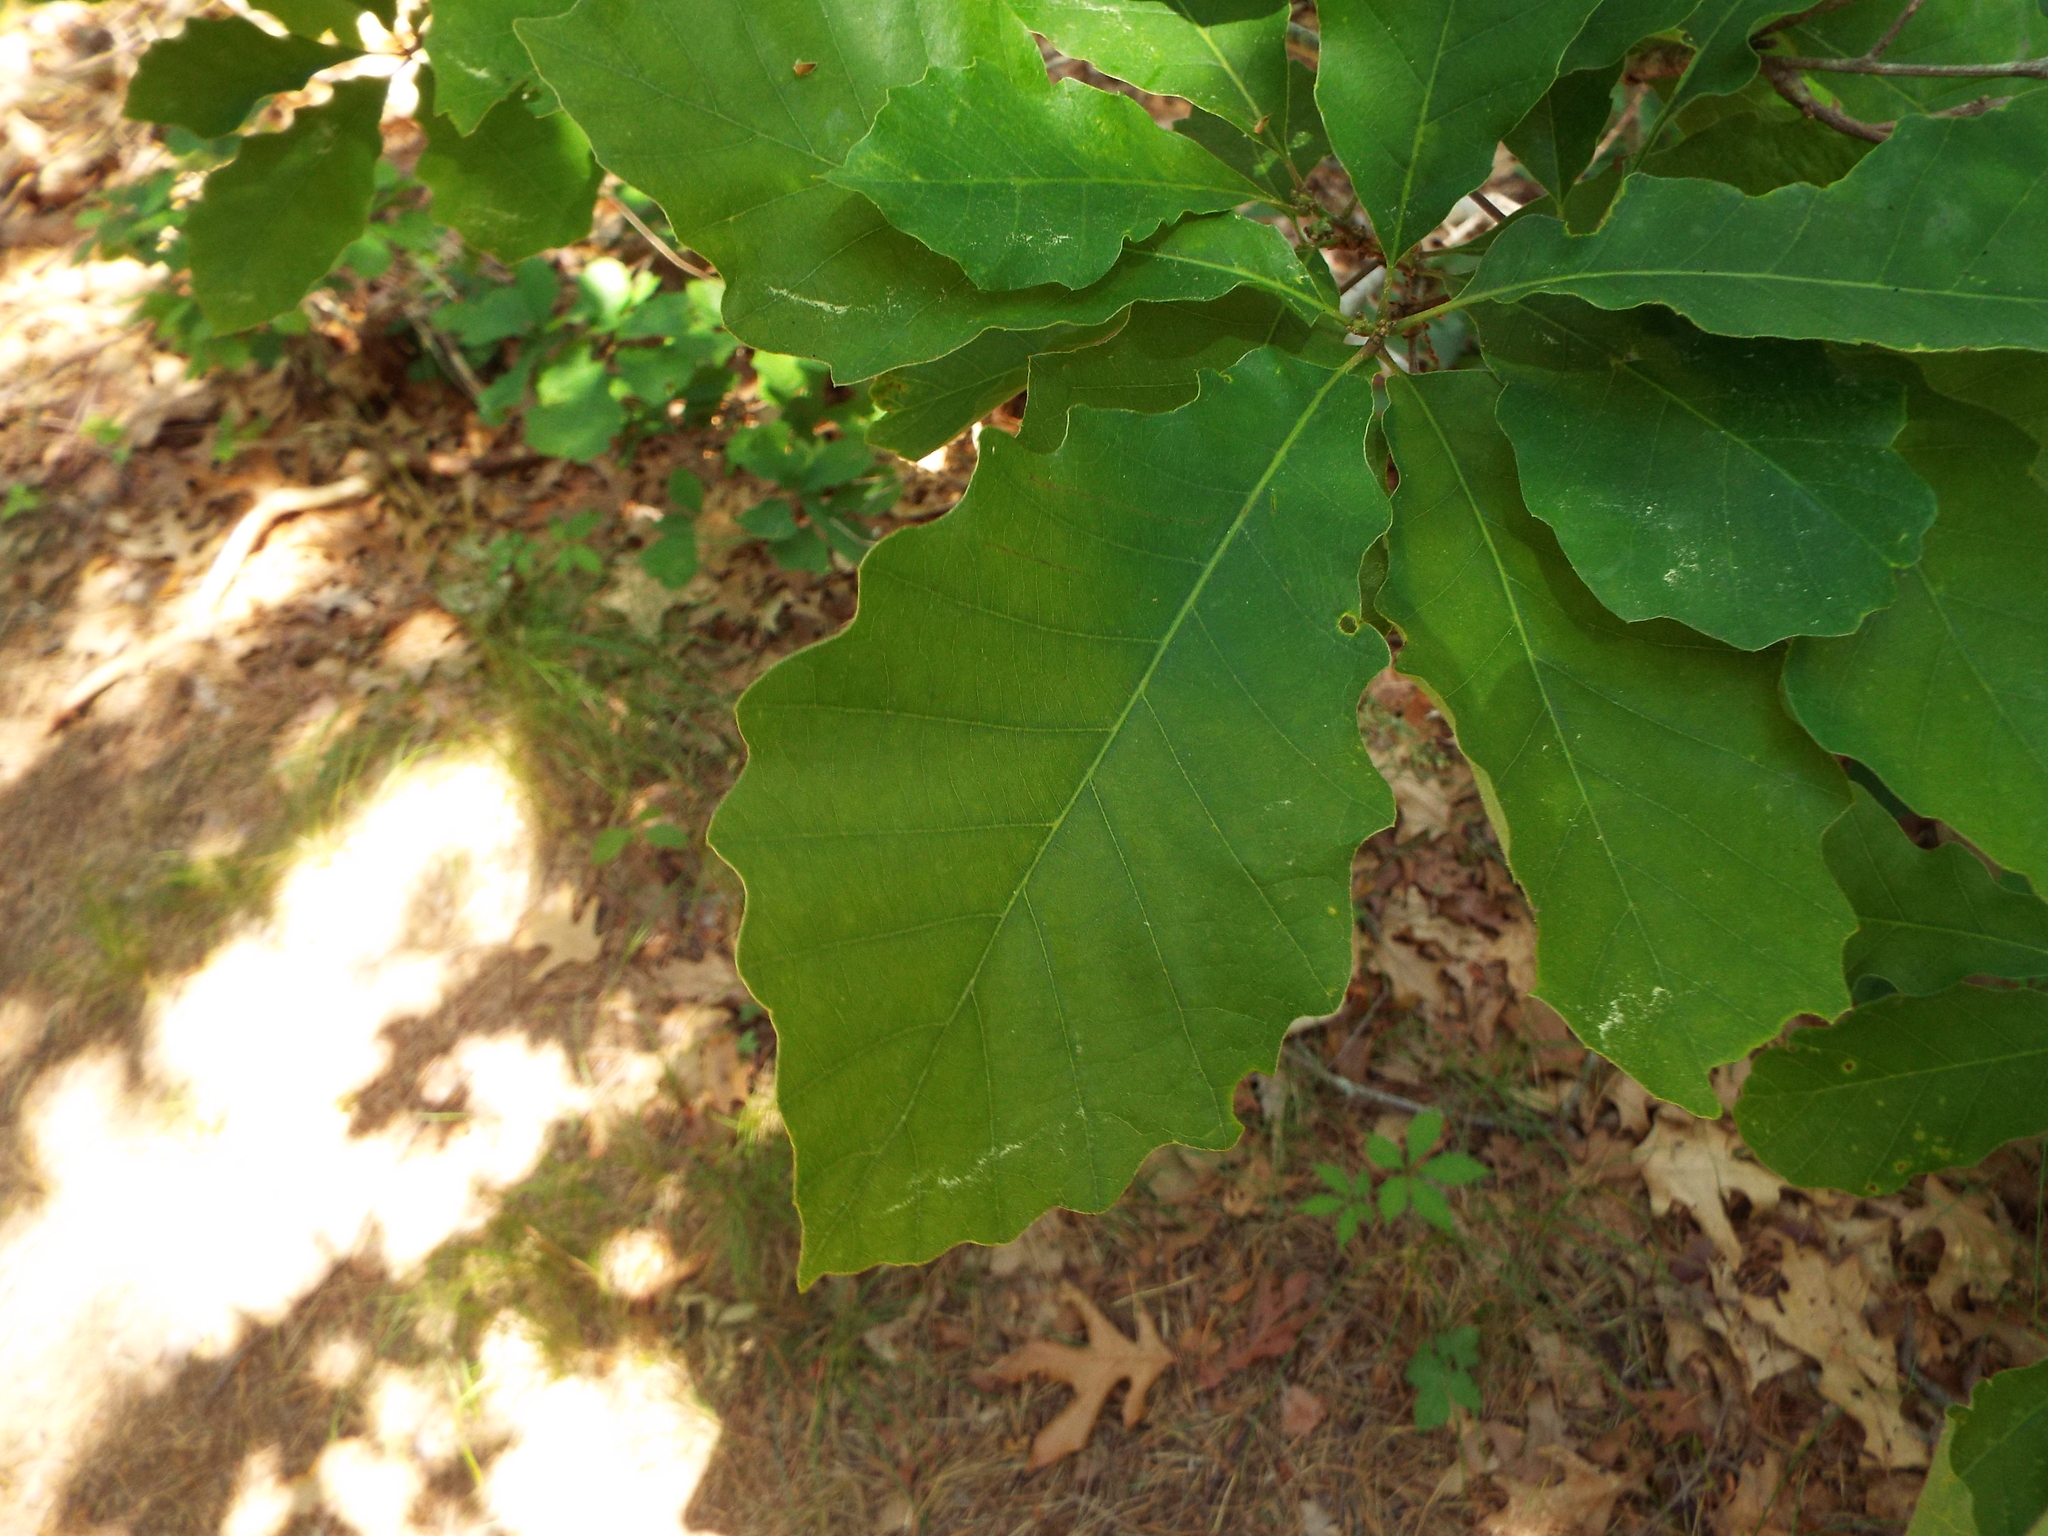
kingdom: Plantae
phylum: Tracheophyta
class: Magnoliopsida
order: Fagales
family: Fagaceae
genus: Quercus
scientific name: Quercus prinoides
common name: Dwarf chinkapin oak
